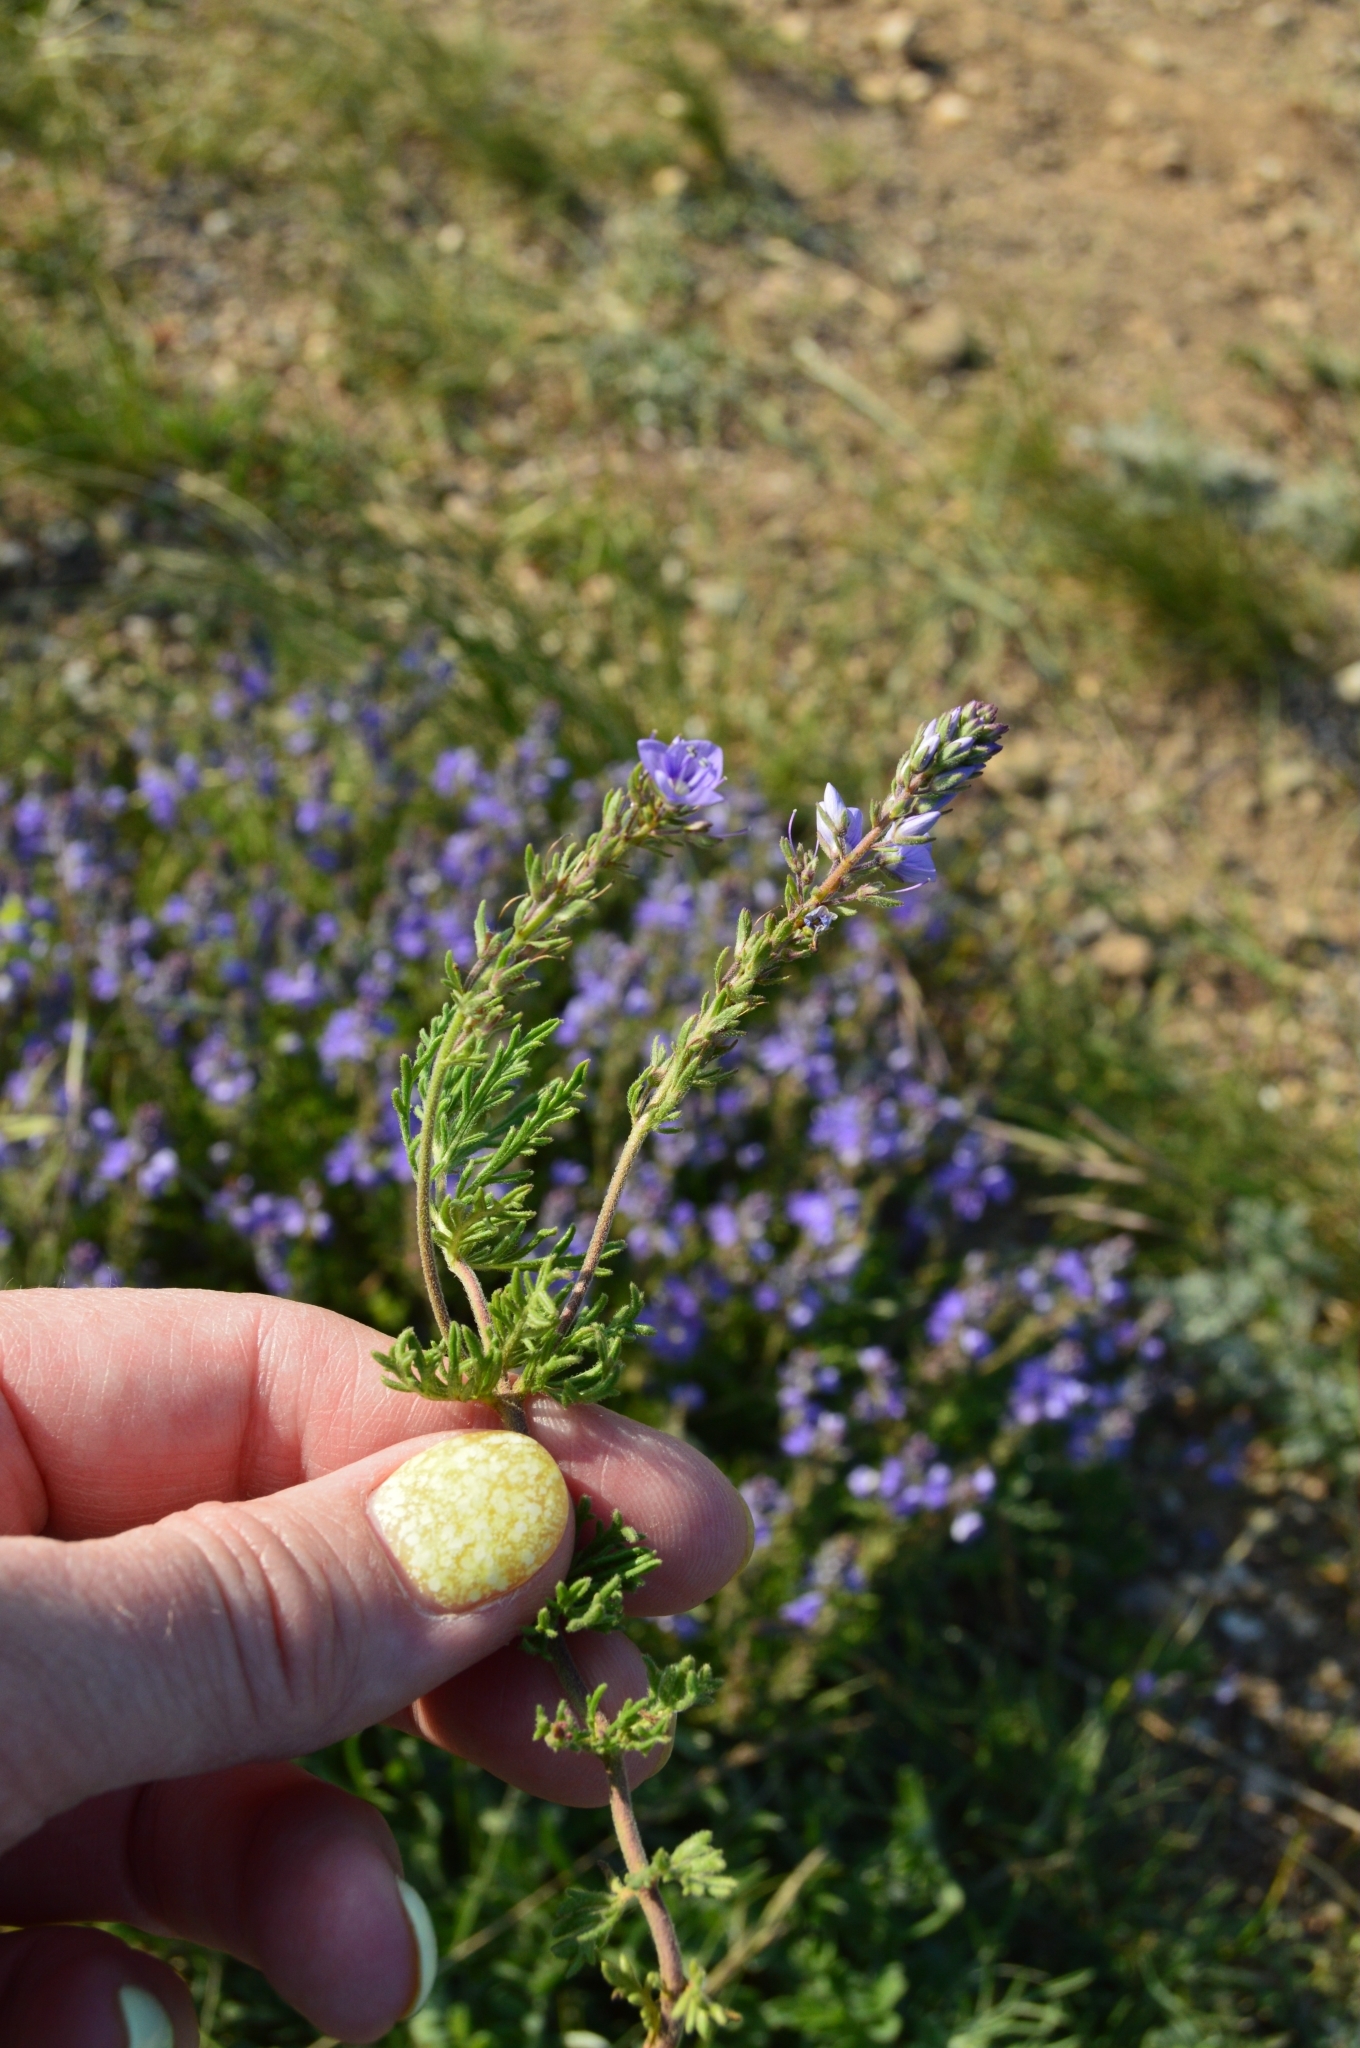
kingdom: Plantae
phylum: Tracheophyta
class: Magnoliopsida
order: Lamiales
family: Plantaginaceae
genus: Veronica
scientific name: Veronica capsellicarpa
